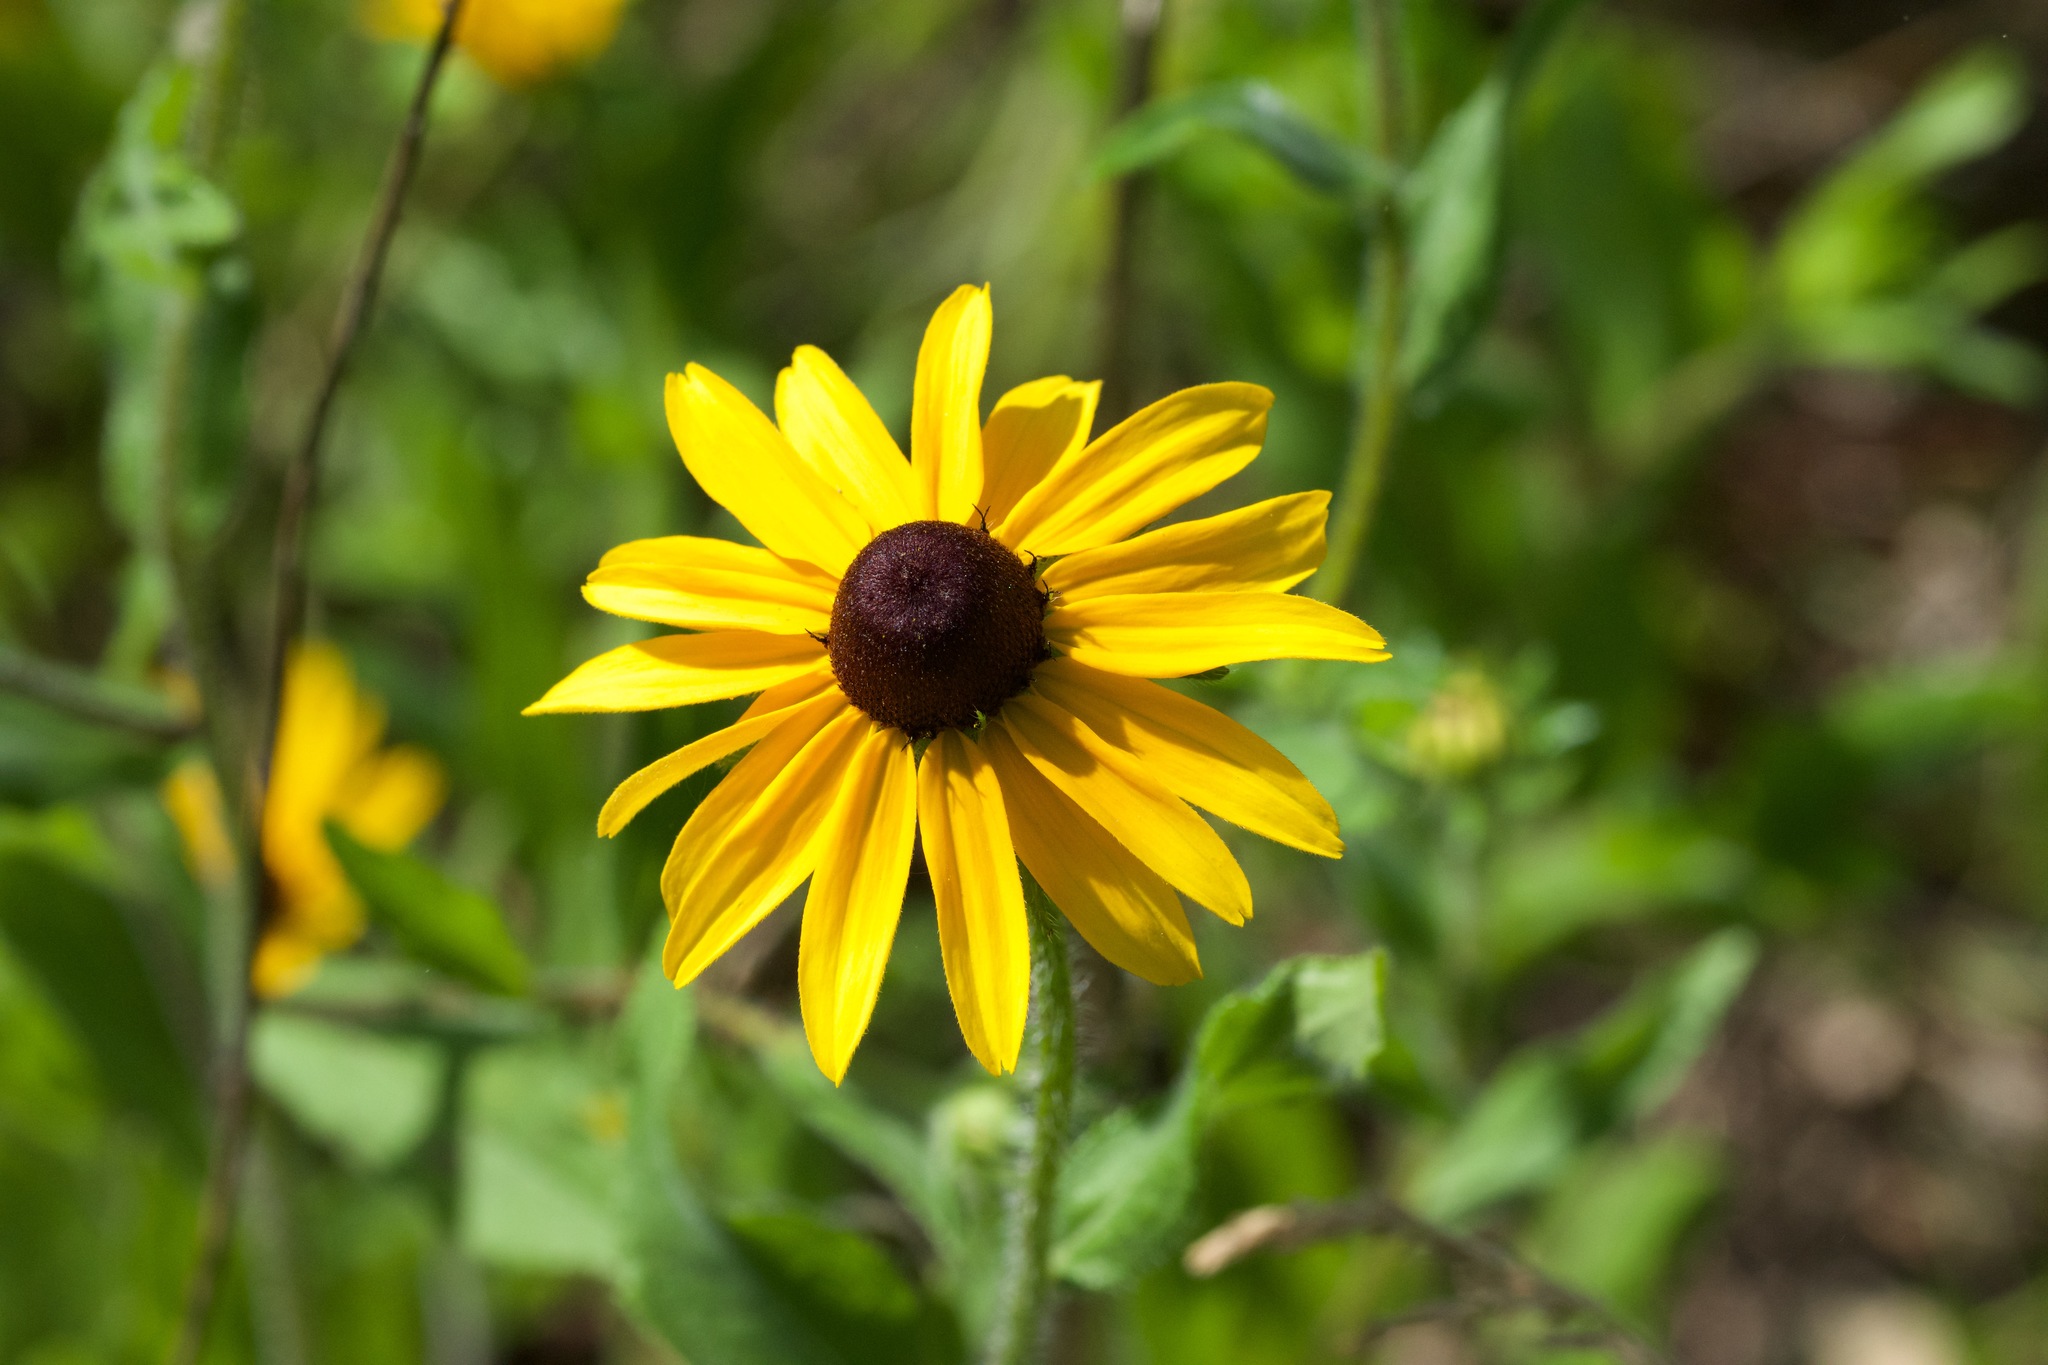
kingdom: Plantae
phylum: Tracheophyta
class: Magnoliopsida
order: Asterales
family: Asteraceae
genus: Rudbeckia
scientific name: Rudbeckia hirta
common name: Black-eyed-susan
